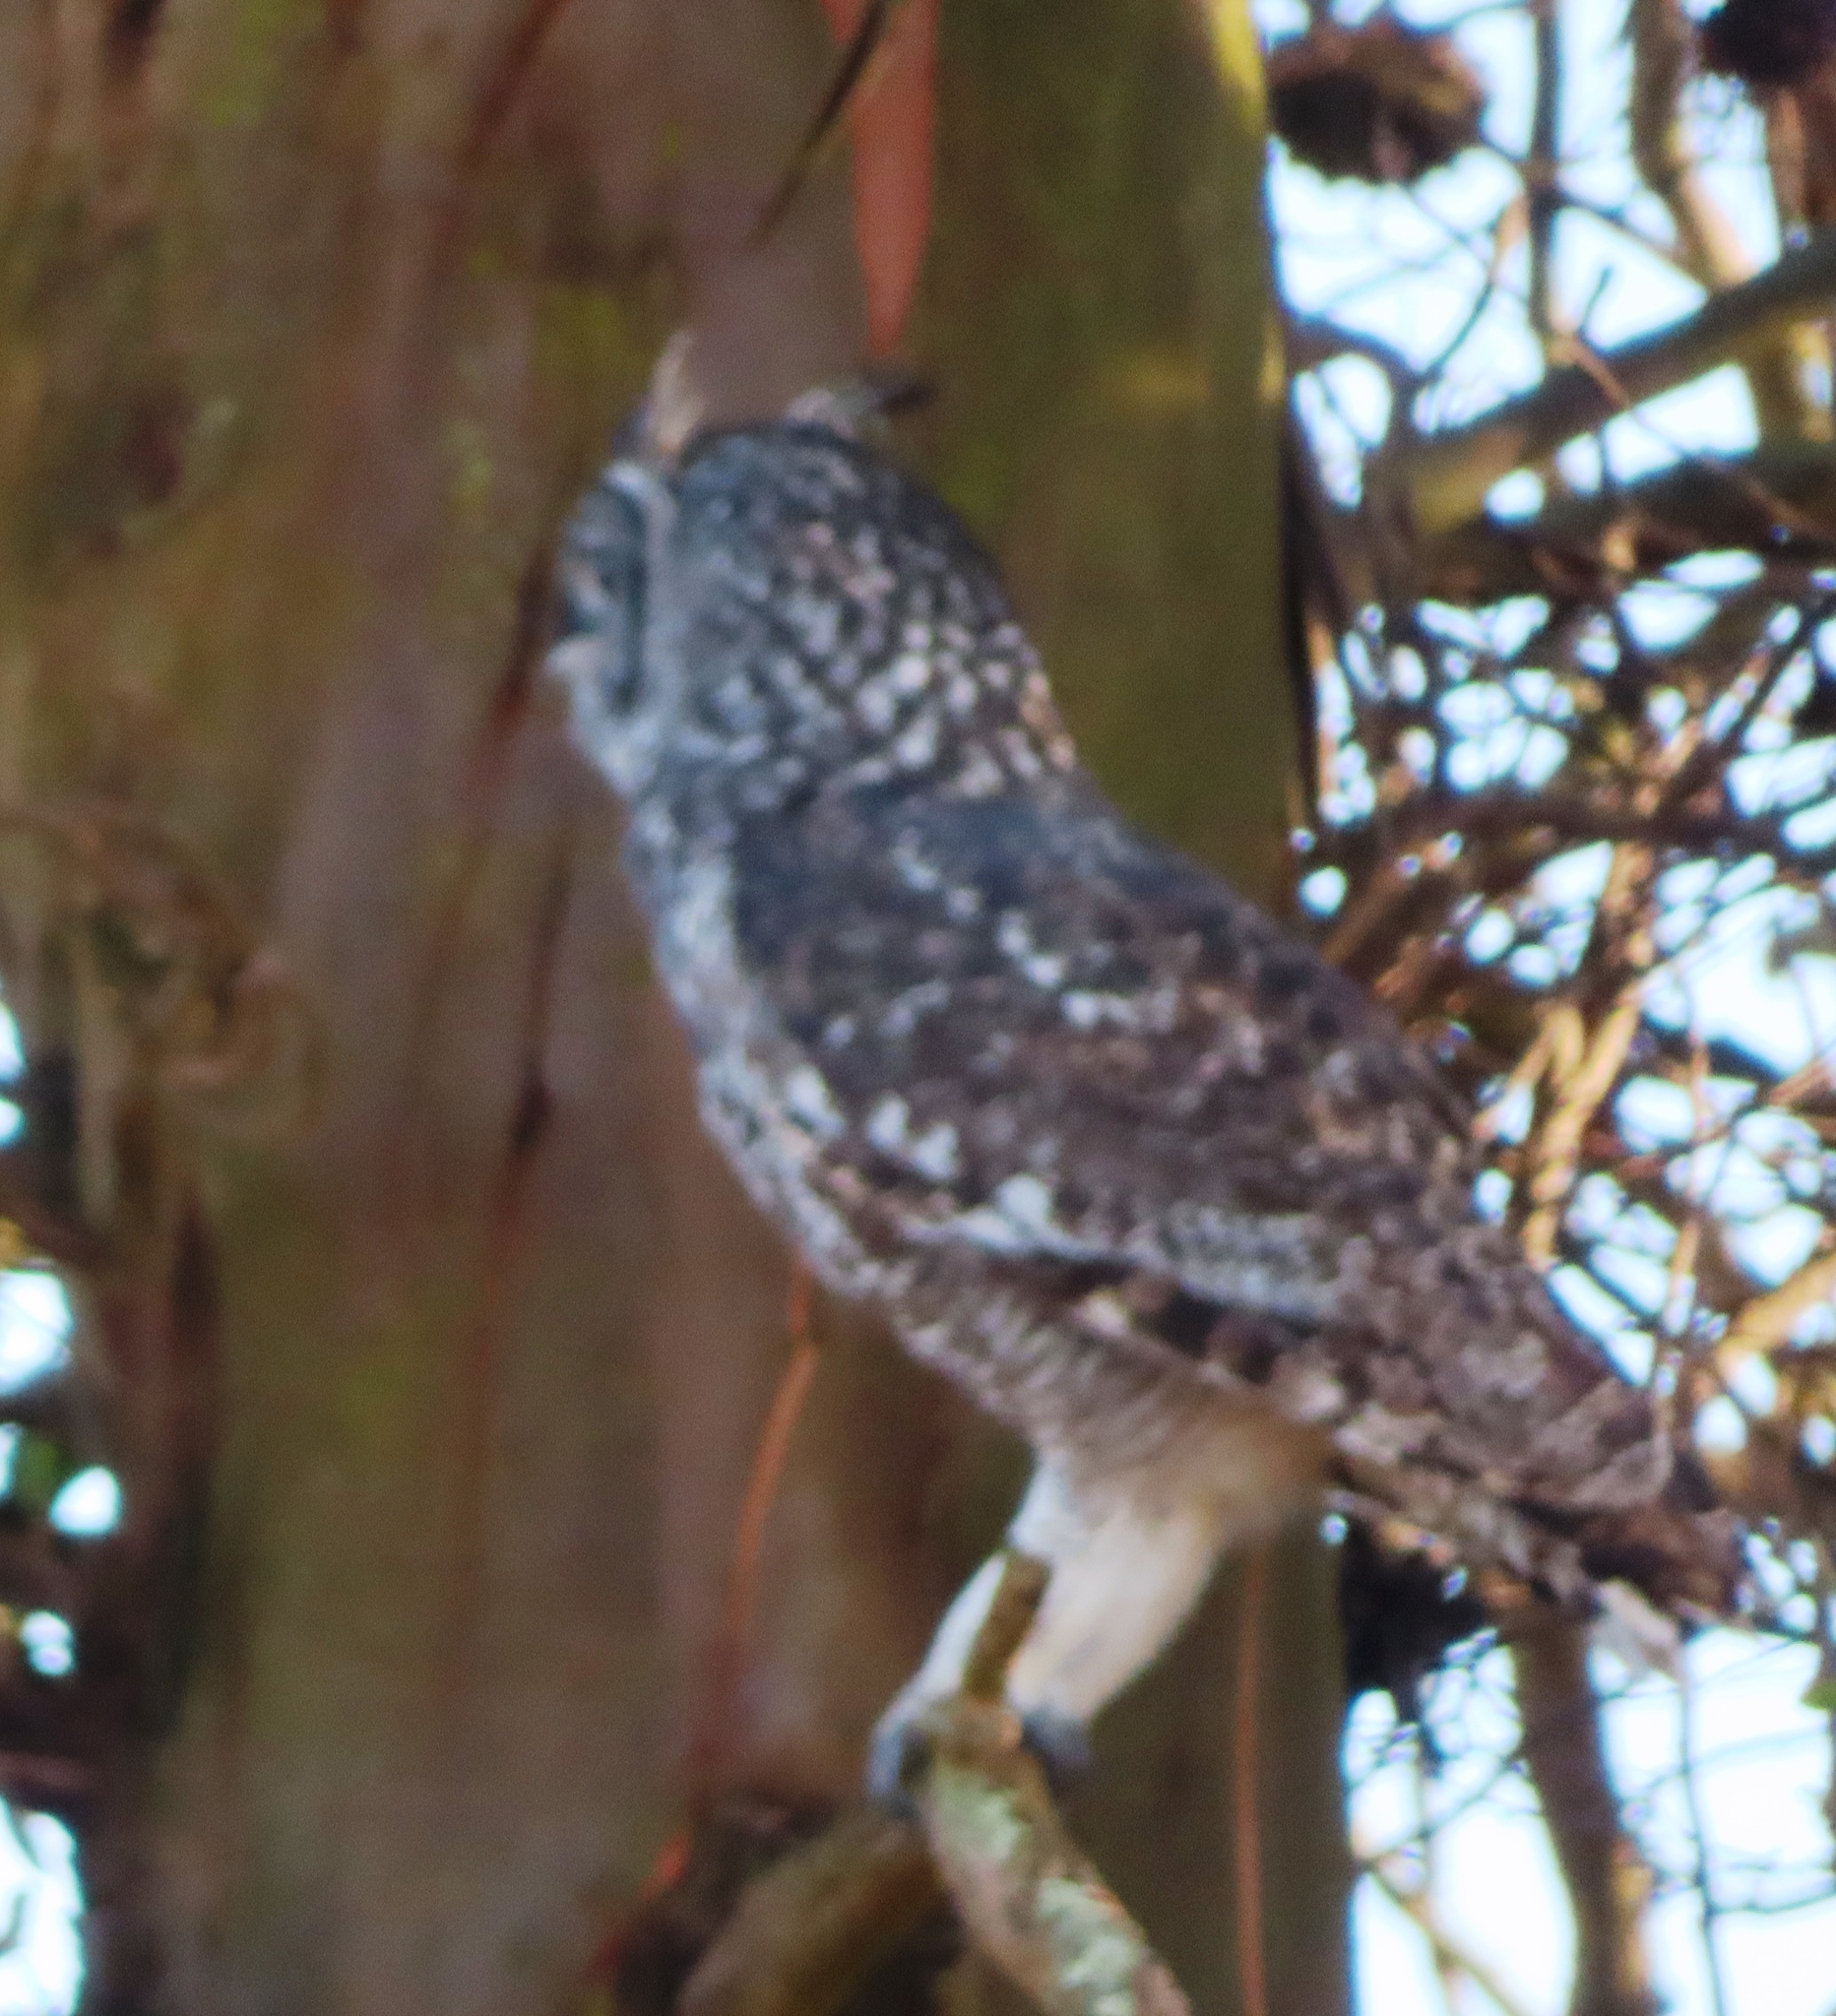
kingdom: Animalia
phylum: Chordata
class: Aves
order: Strigiformes
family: Strigidae
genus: Bubo
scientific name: Bubo africanus
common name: Spotted eagle-owl
